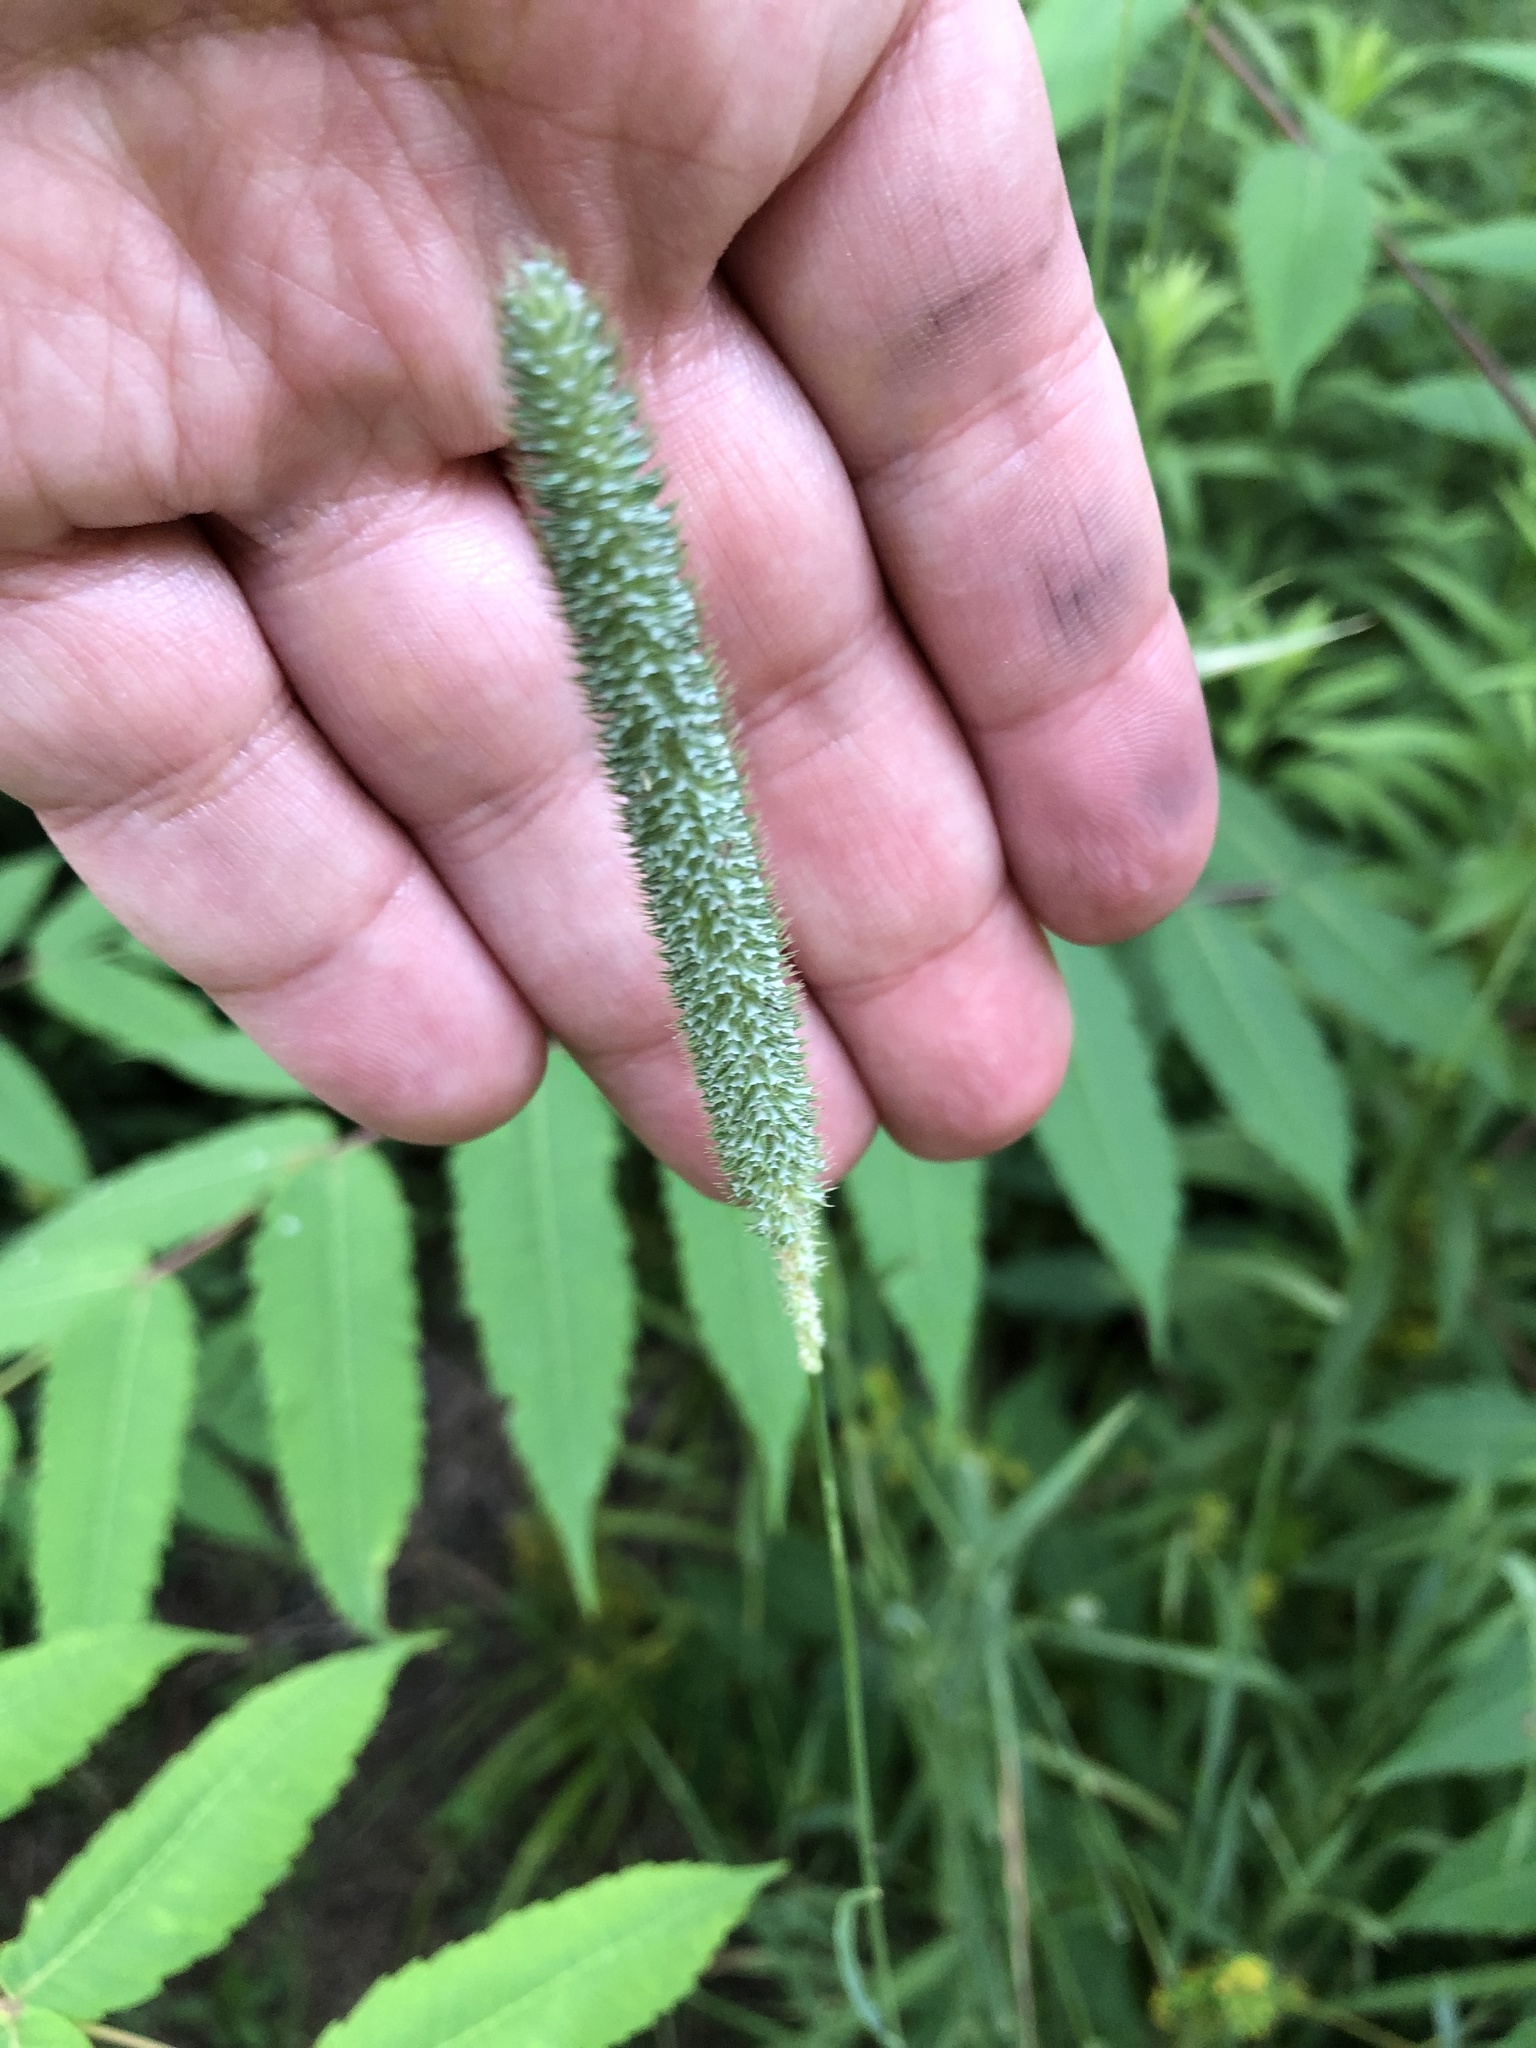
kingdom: Plantae
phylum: Tracheophyta
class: Liliopsida
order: Poales
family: Poaceae
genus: Phleum
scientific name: Phleum pratense
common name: Timothy grass
